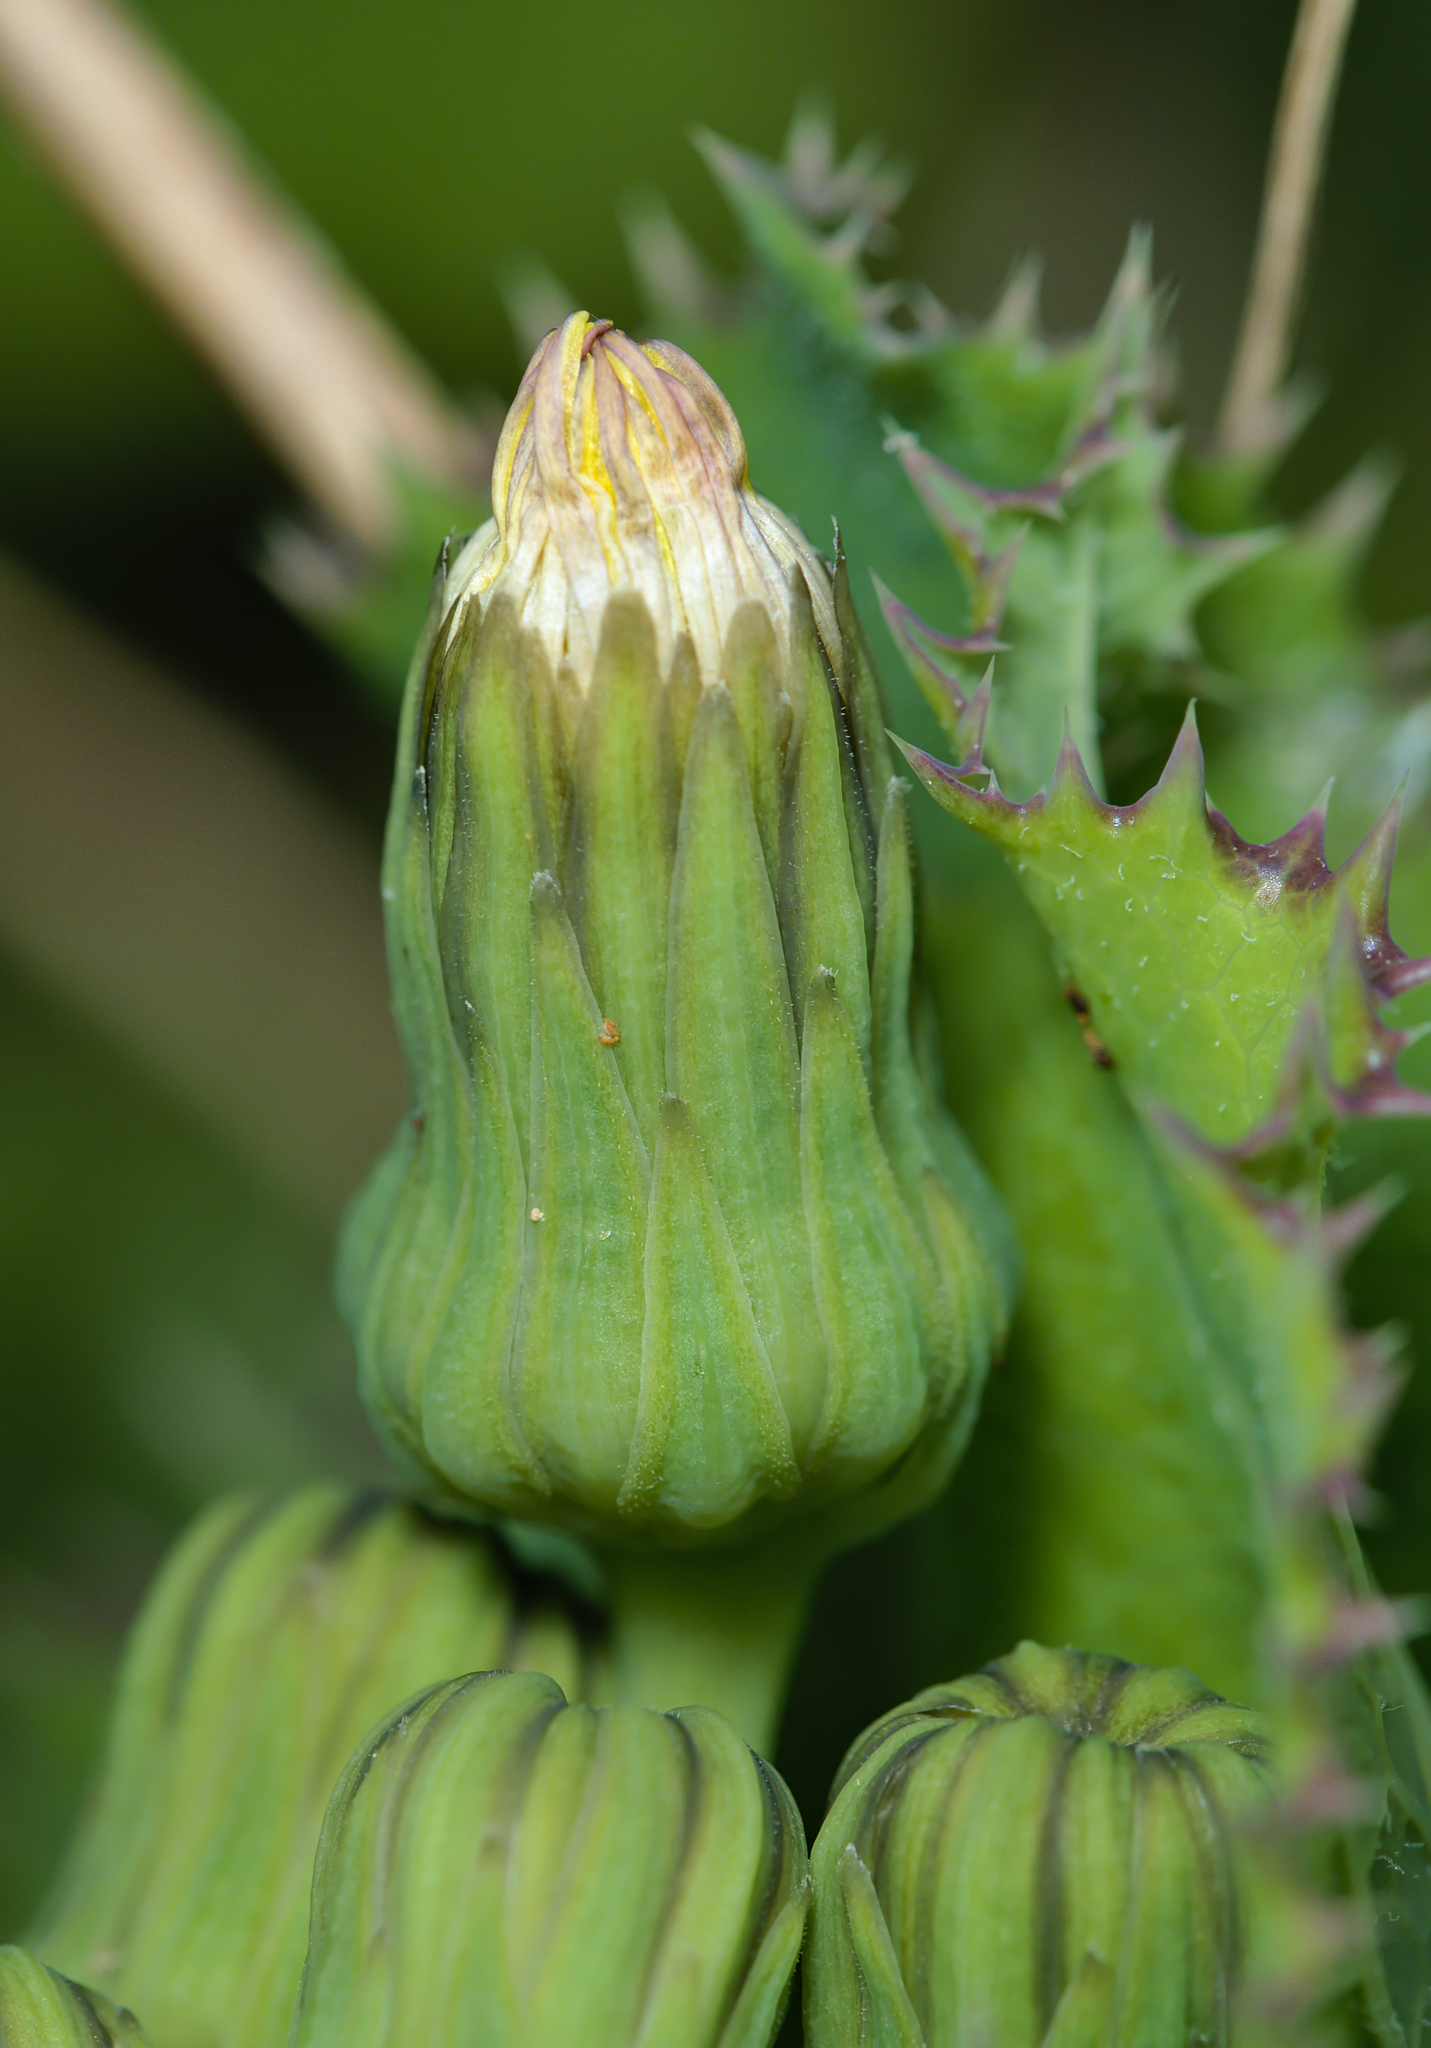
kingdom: Plantae
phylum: Tracheophyta
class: Magnoliopsida
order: Asterales
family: Asteraceae
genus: Sonchus
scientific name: Sonchus asper
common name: Prickly sow-thistle
